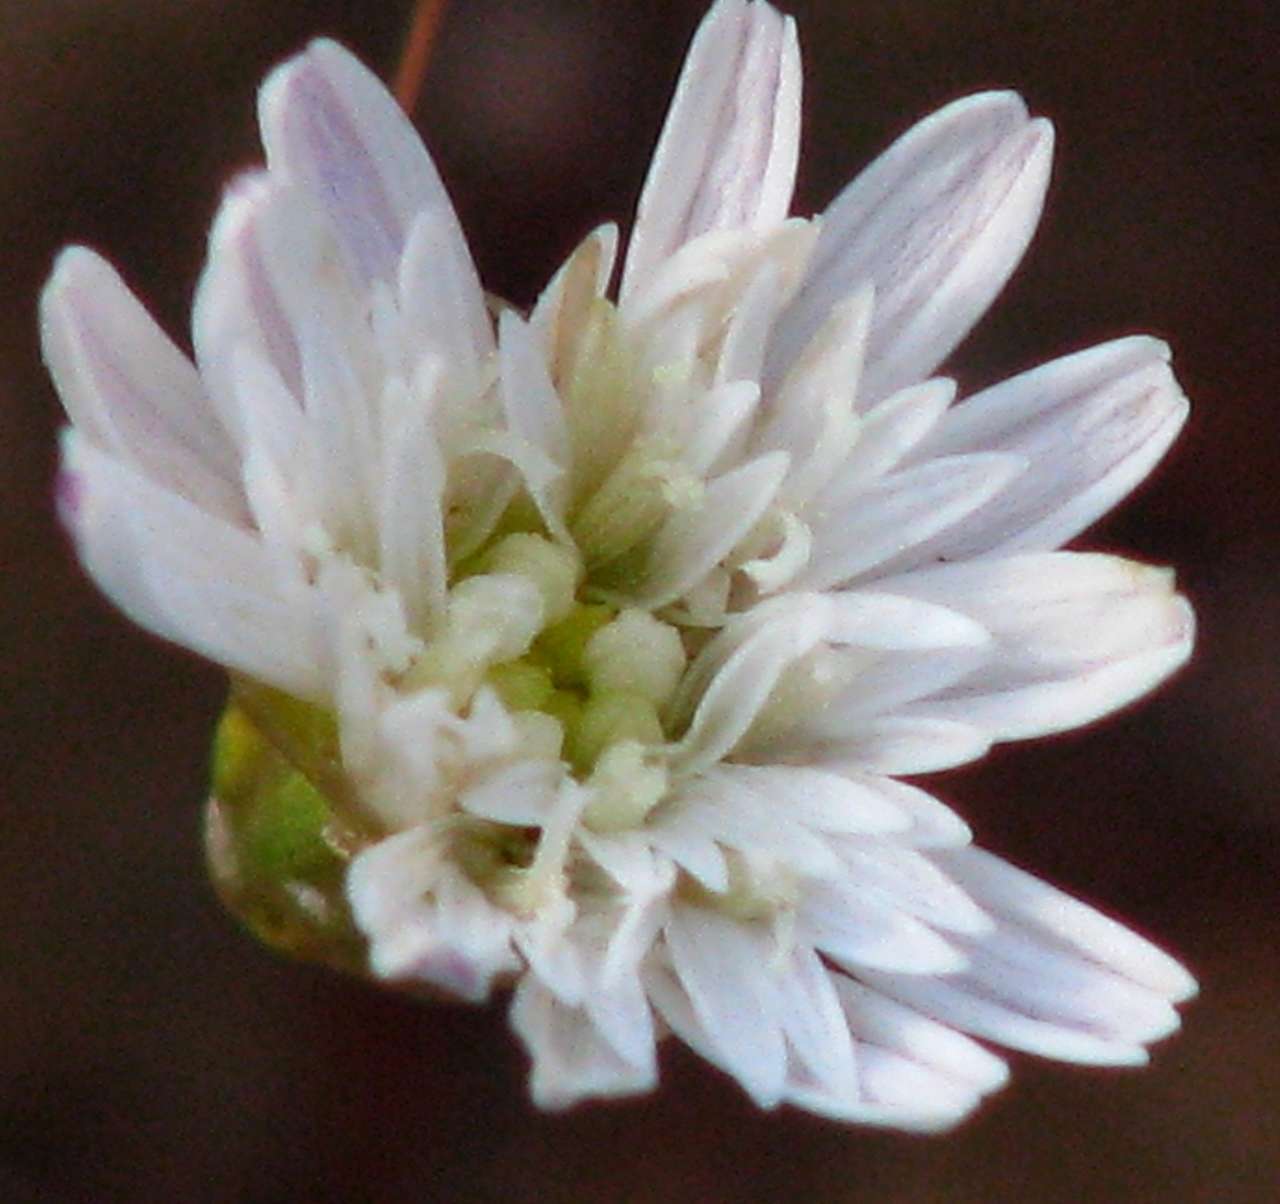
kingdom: Plantae
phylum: Tracheophyta
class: Magnoliopsida
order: Asterales
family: Asteraceae
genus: Siemssenia
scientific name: Siemssenia capillaris
